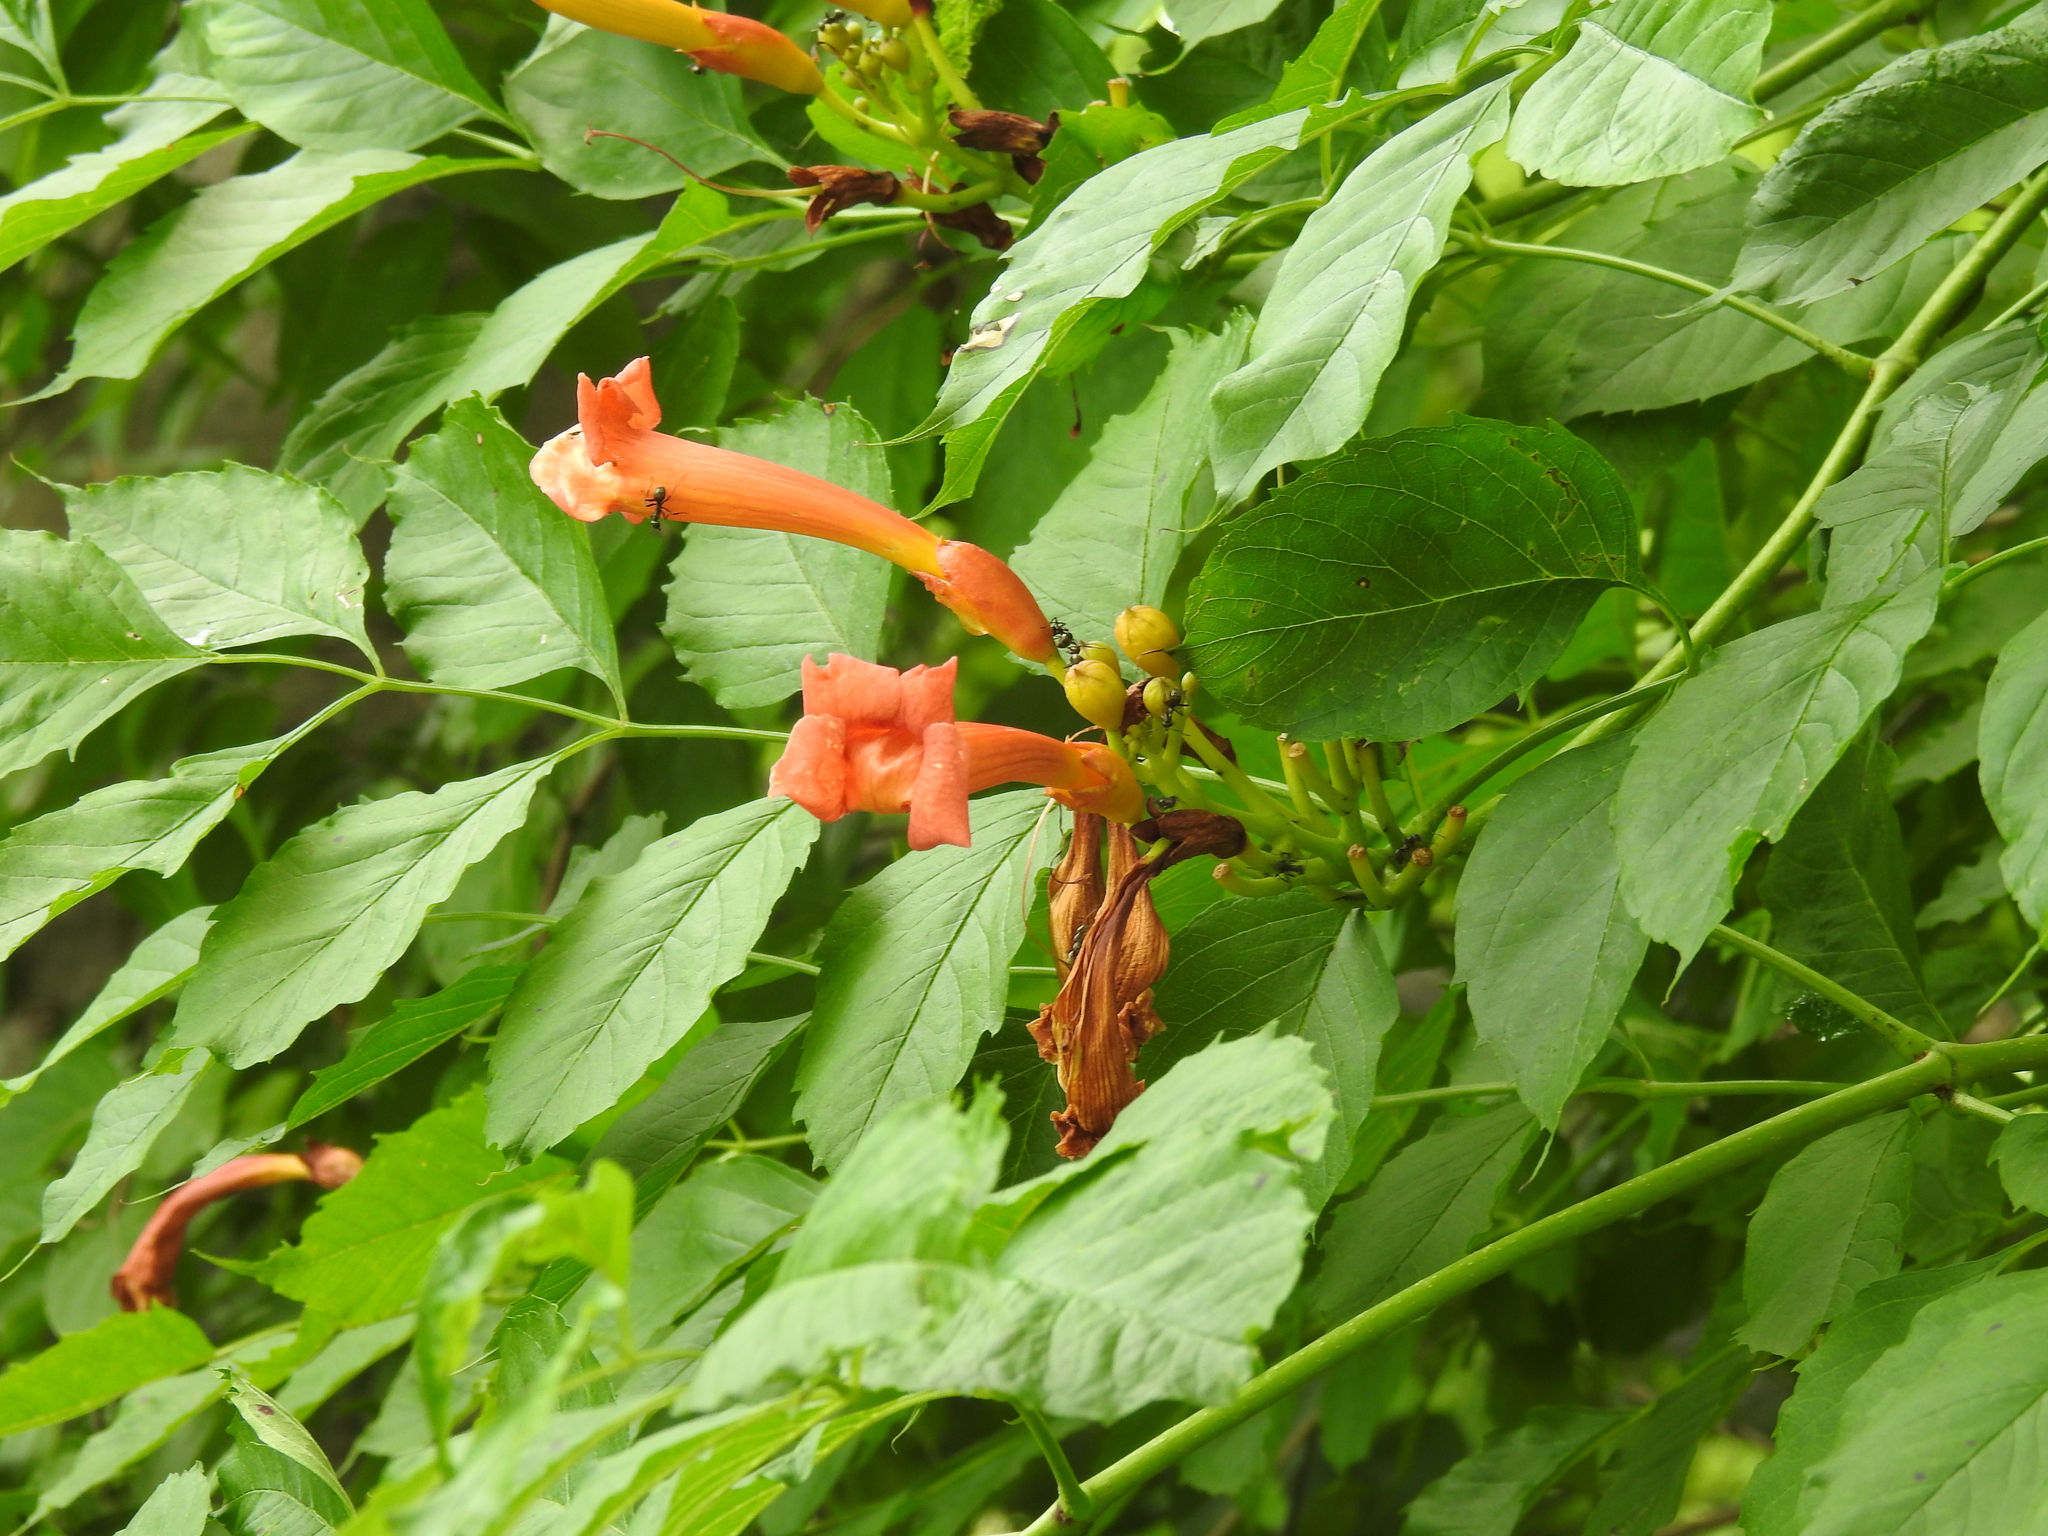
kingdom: Plantae
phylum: Tracheophyta
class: Magnoliopsida
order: Lamiales
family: Bignoniaceae
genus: Campsis
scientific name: Campsis radicans
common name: Trumpet-creeper
